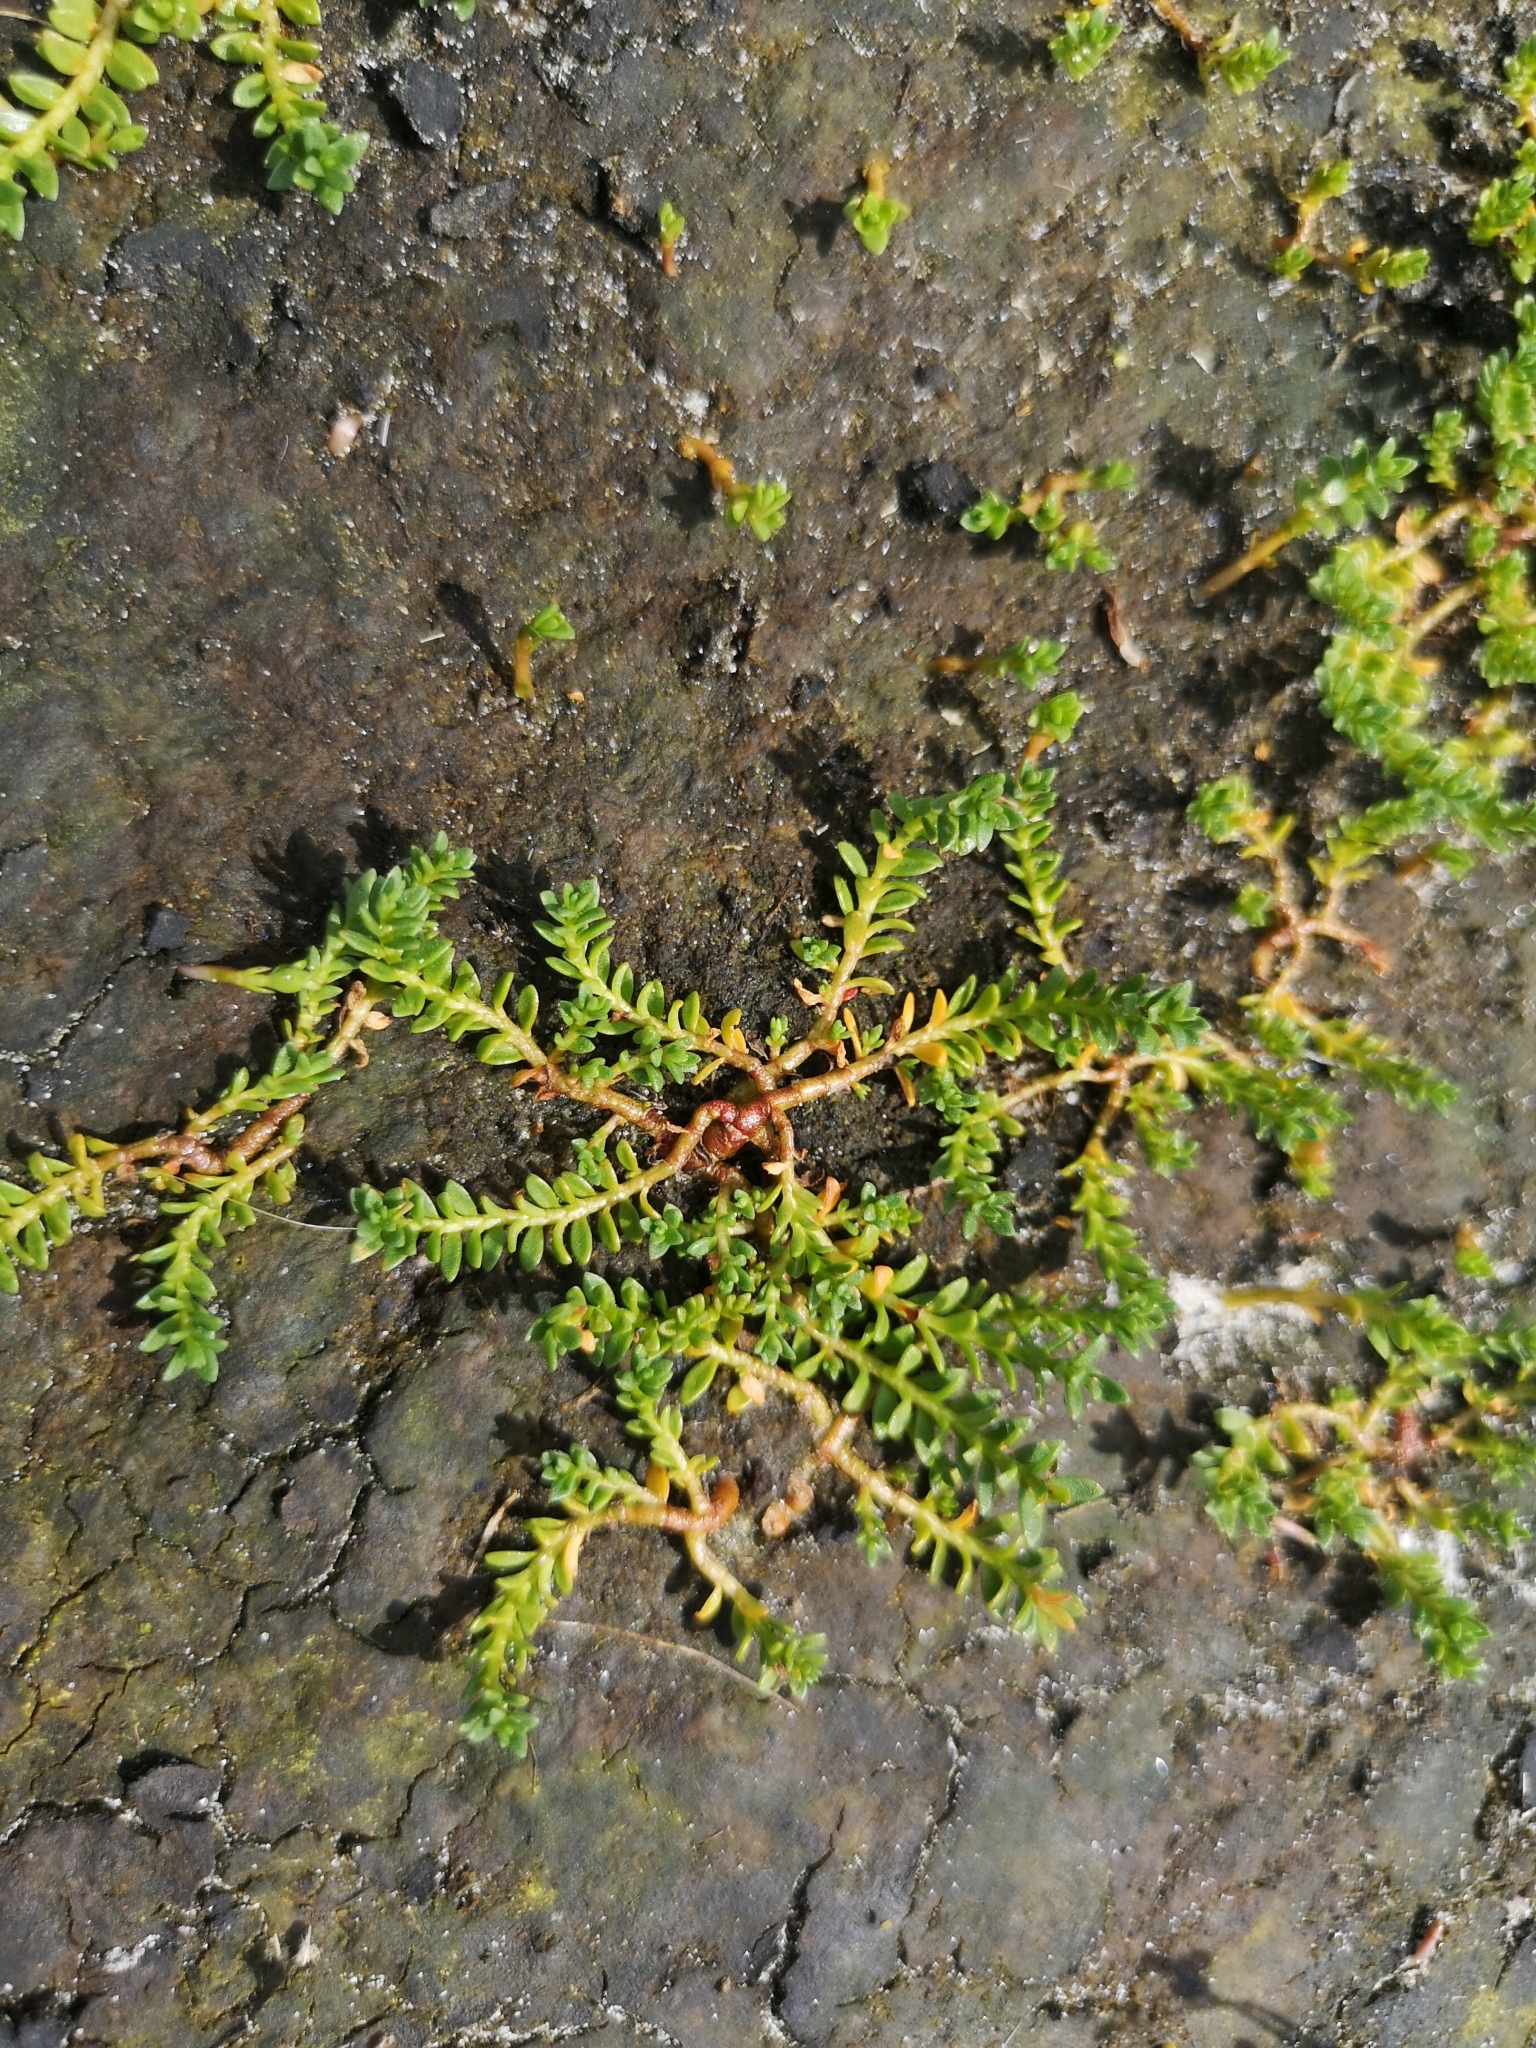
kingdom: Plantae
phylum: Tracheophyta
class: Magnoliopsida
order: Ericales
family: Primulaceae
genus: Lysimachia
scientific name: Lysimachia maritima
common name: Sea milkwort
